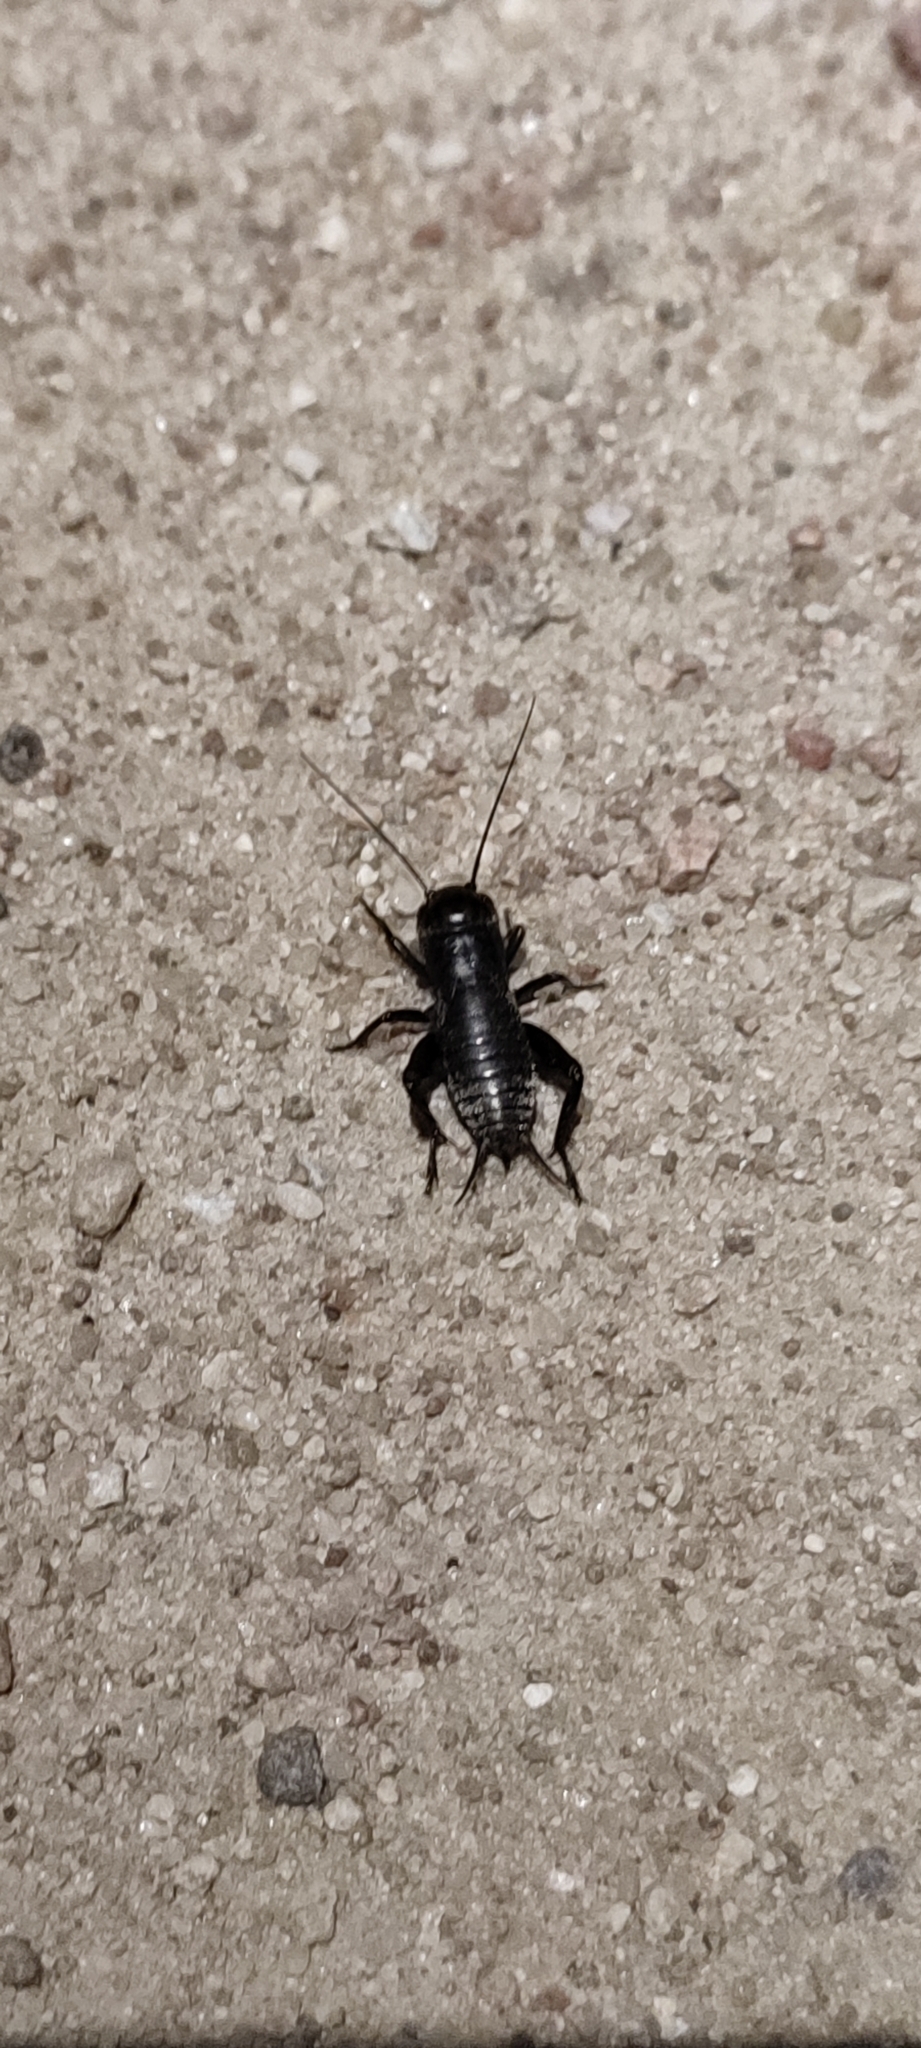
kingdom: Animalia
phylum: Arthropoda
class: Insecta
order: Orthoptera
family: Gryllidae
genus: Gryllus
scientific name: Gryllus campestris
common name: Field cricket
